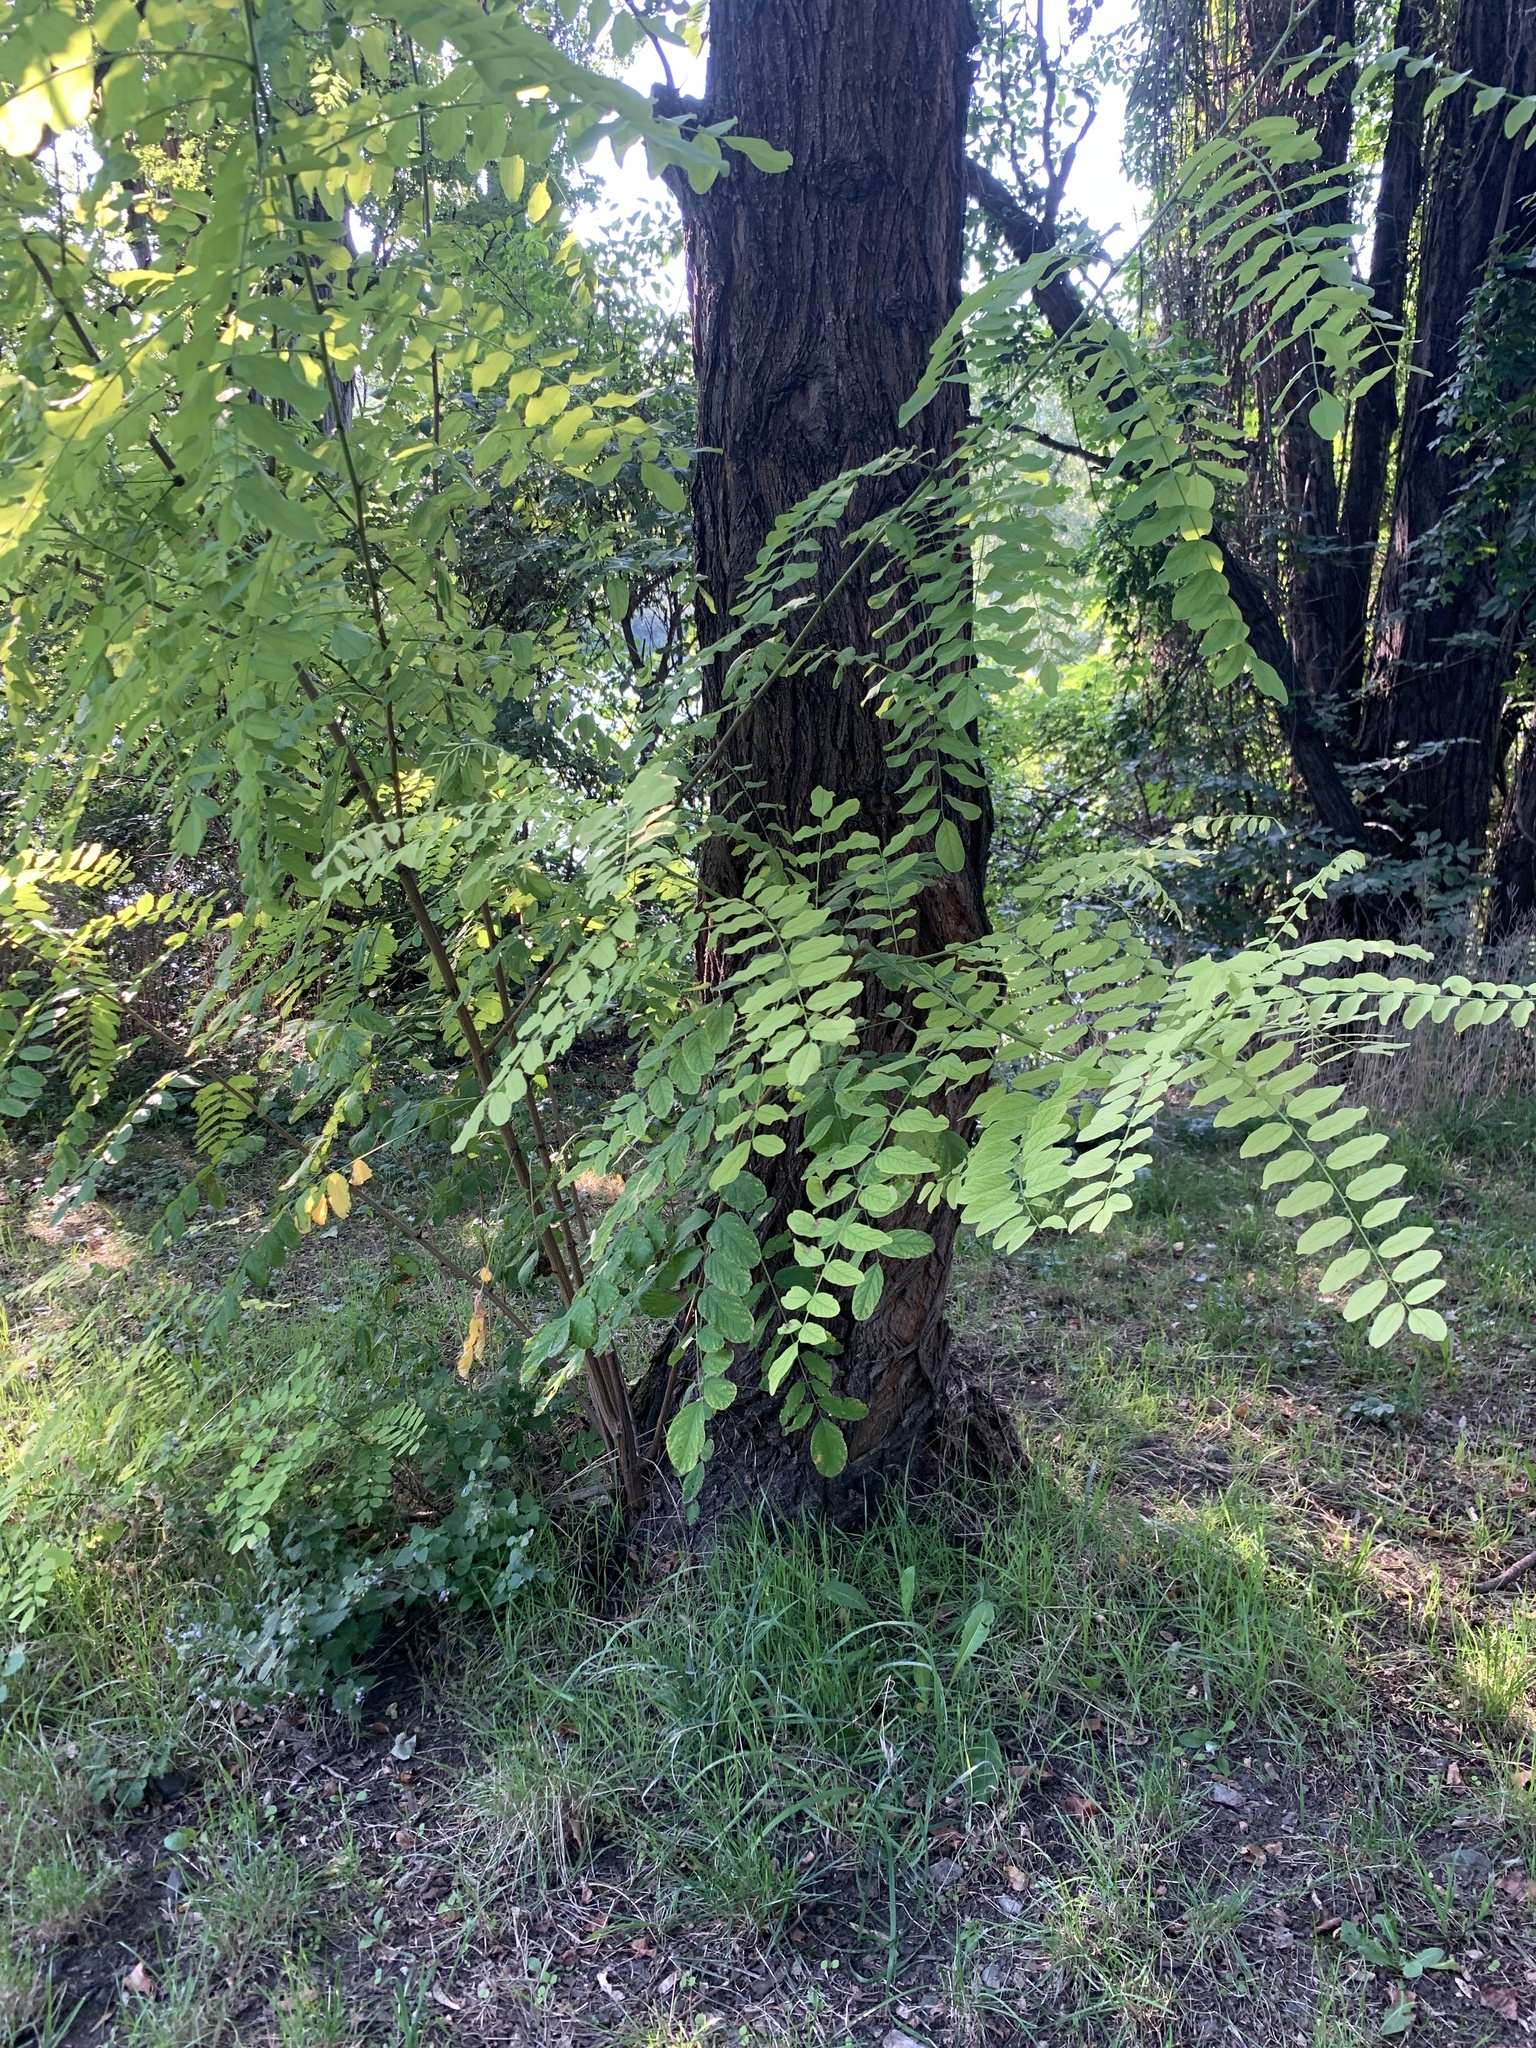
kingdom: Plantae
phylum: Tracheophyta
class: Magnoliopsida
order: Fabales
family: Fabaceae
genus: Robinia
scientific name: Robinia pseudoacacia
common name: Black locust
